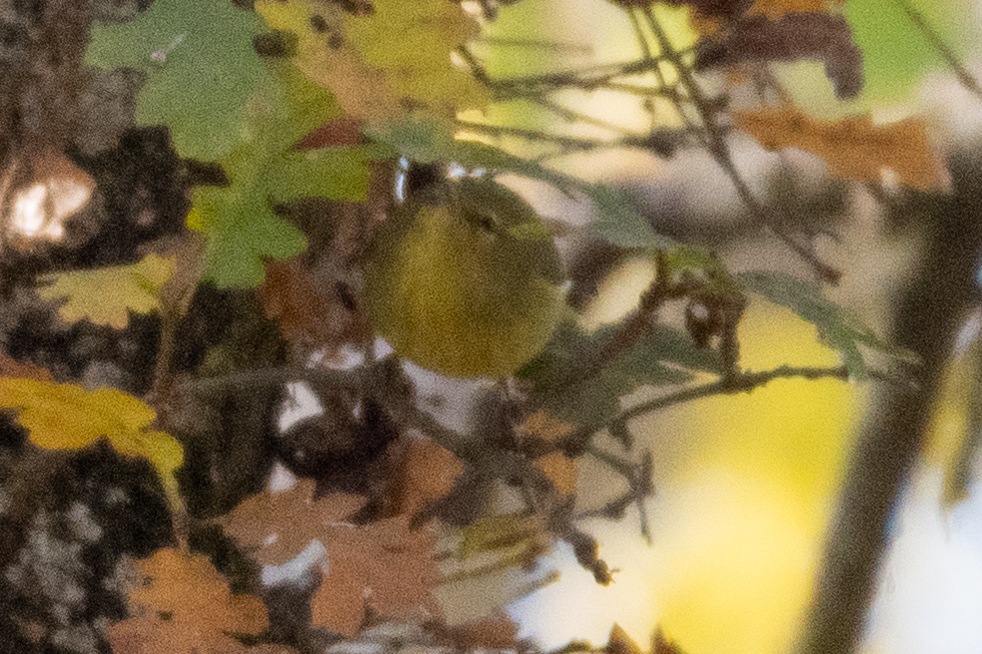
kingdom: Animalia
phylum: Chordata
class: Aves
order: Passeriformes
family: Parulidae
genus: Leiothlypis
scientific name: Leiothlypis celata
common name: Orange-crowned warbler
